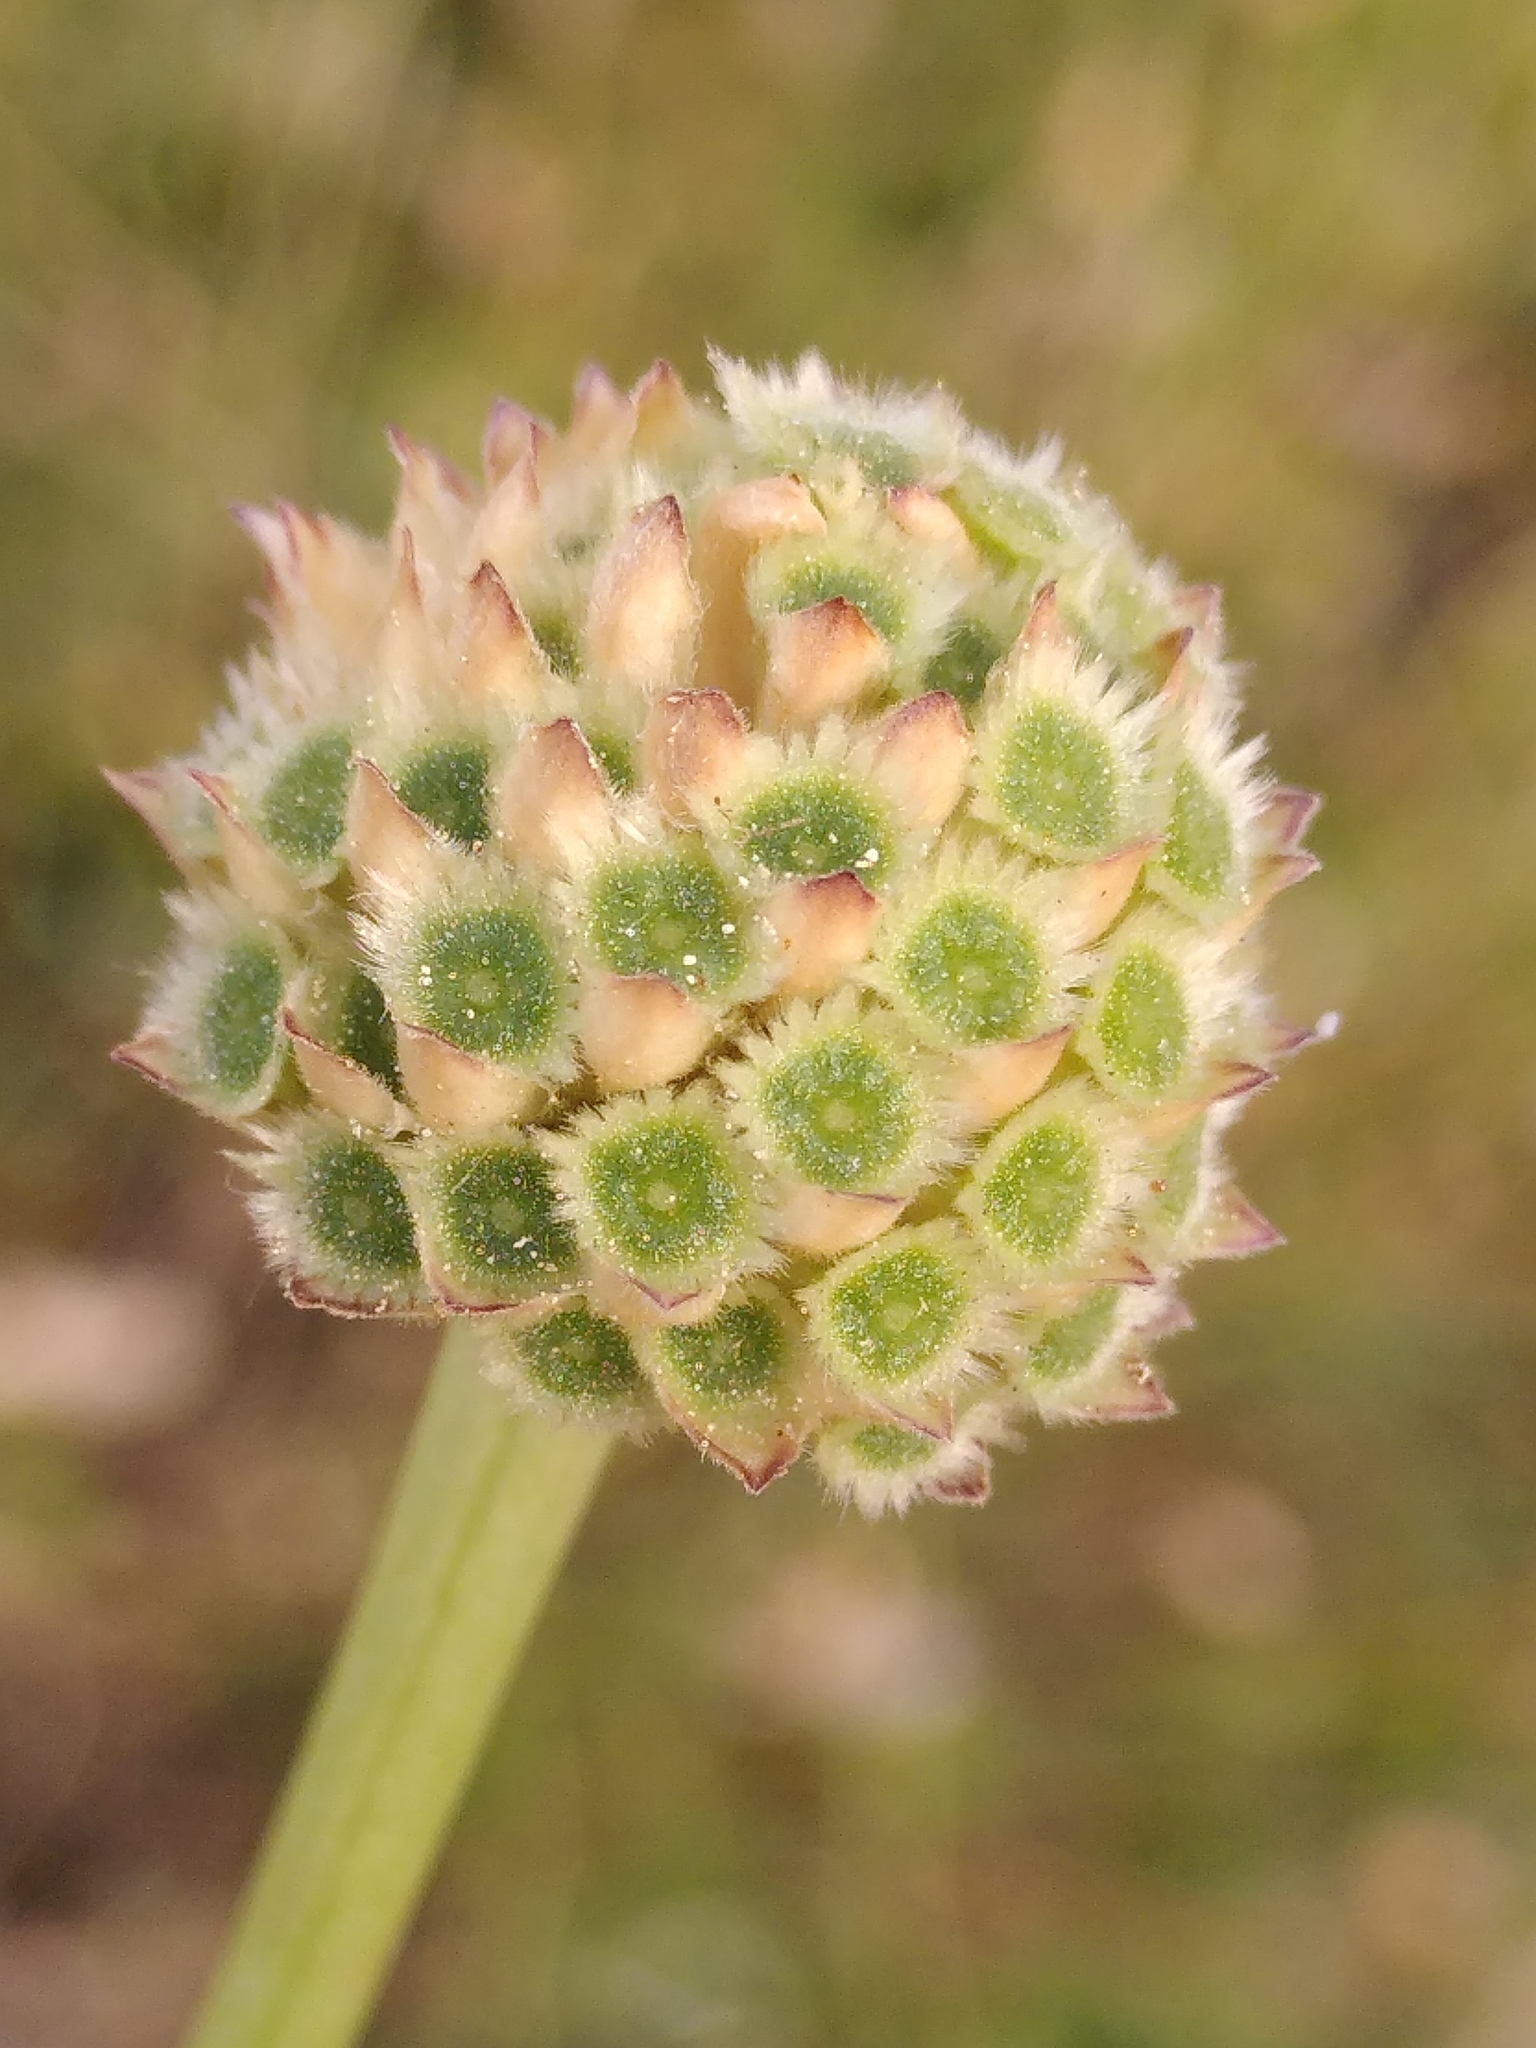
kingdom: Plantae
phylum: Tracheophyta
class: Magnoliopsida
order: Dipsacales
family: Caprifoliaceae
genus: Cephalaria
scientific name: Cephalaria leucantha
